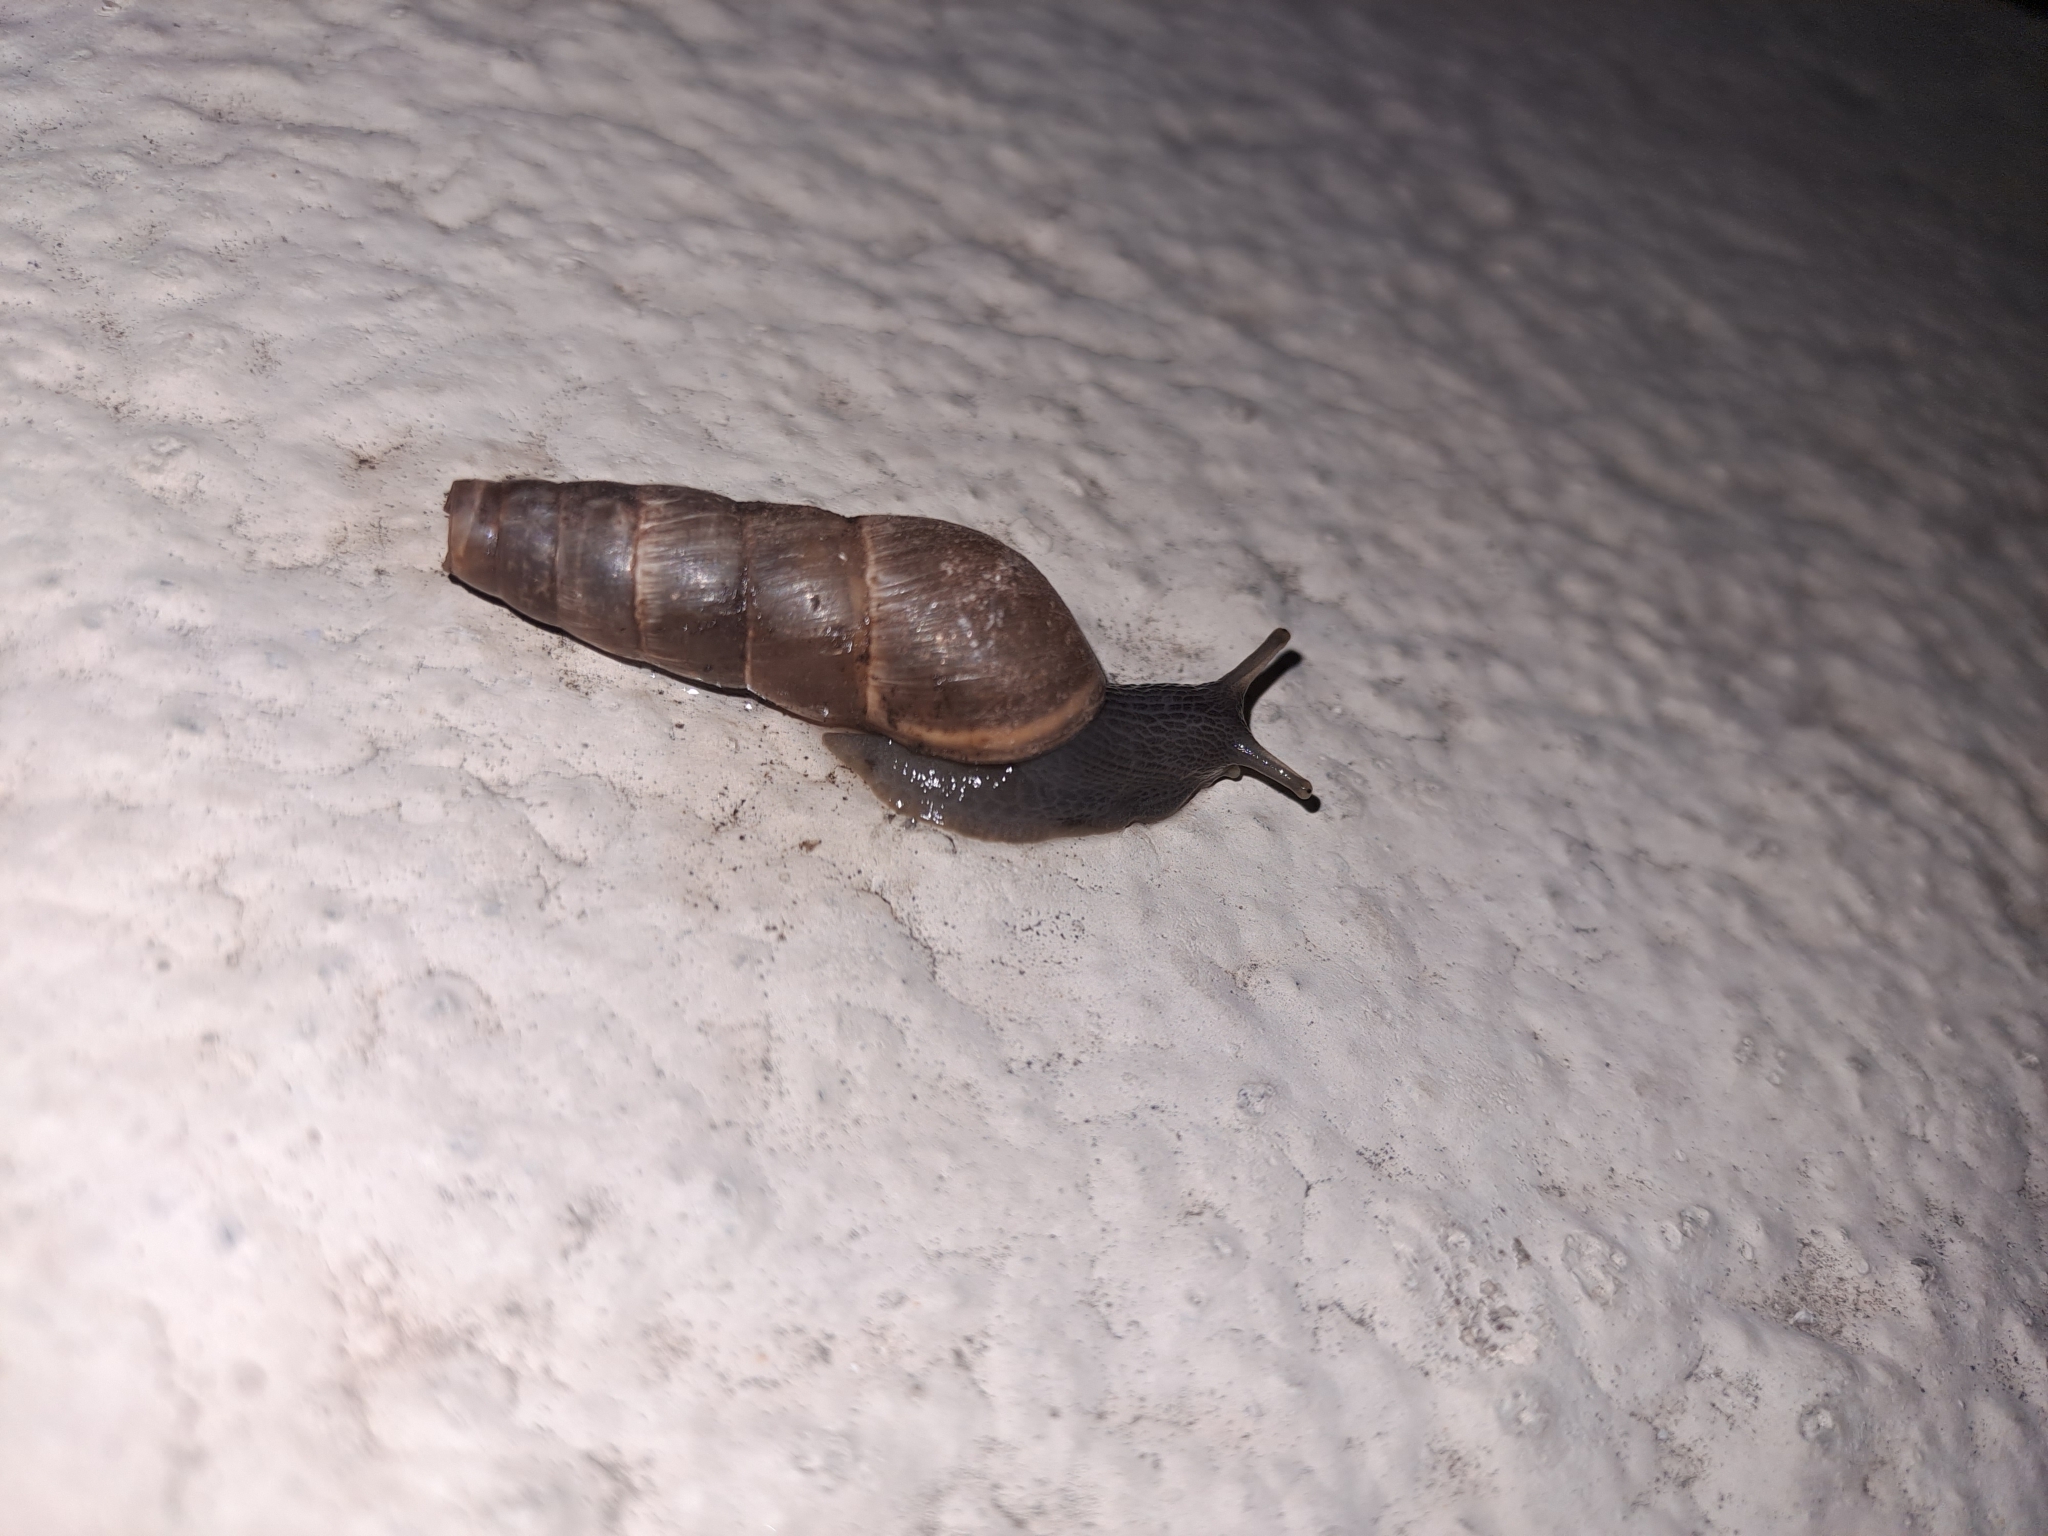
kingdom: Animalia
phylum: Mollusca
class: Gastropoda
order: Stylommatophora
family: Achatinidae
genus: Rumina
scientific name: Rumina decollata
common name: Decollate snail
